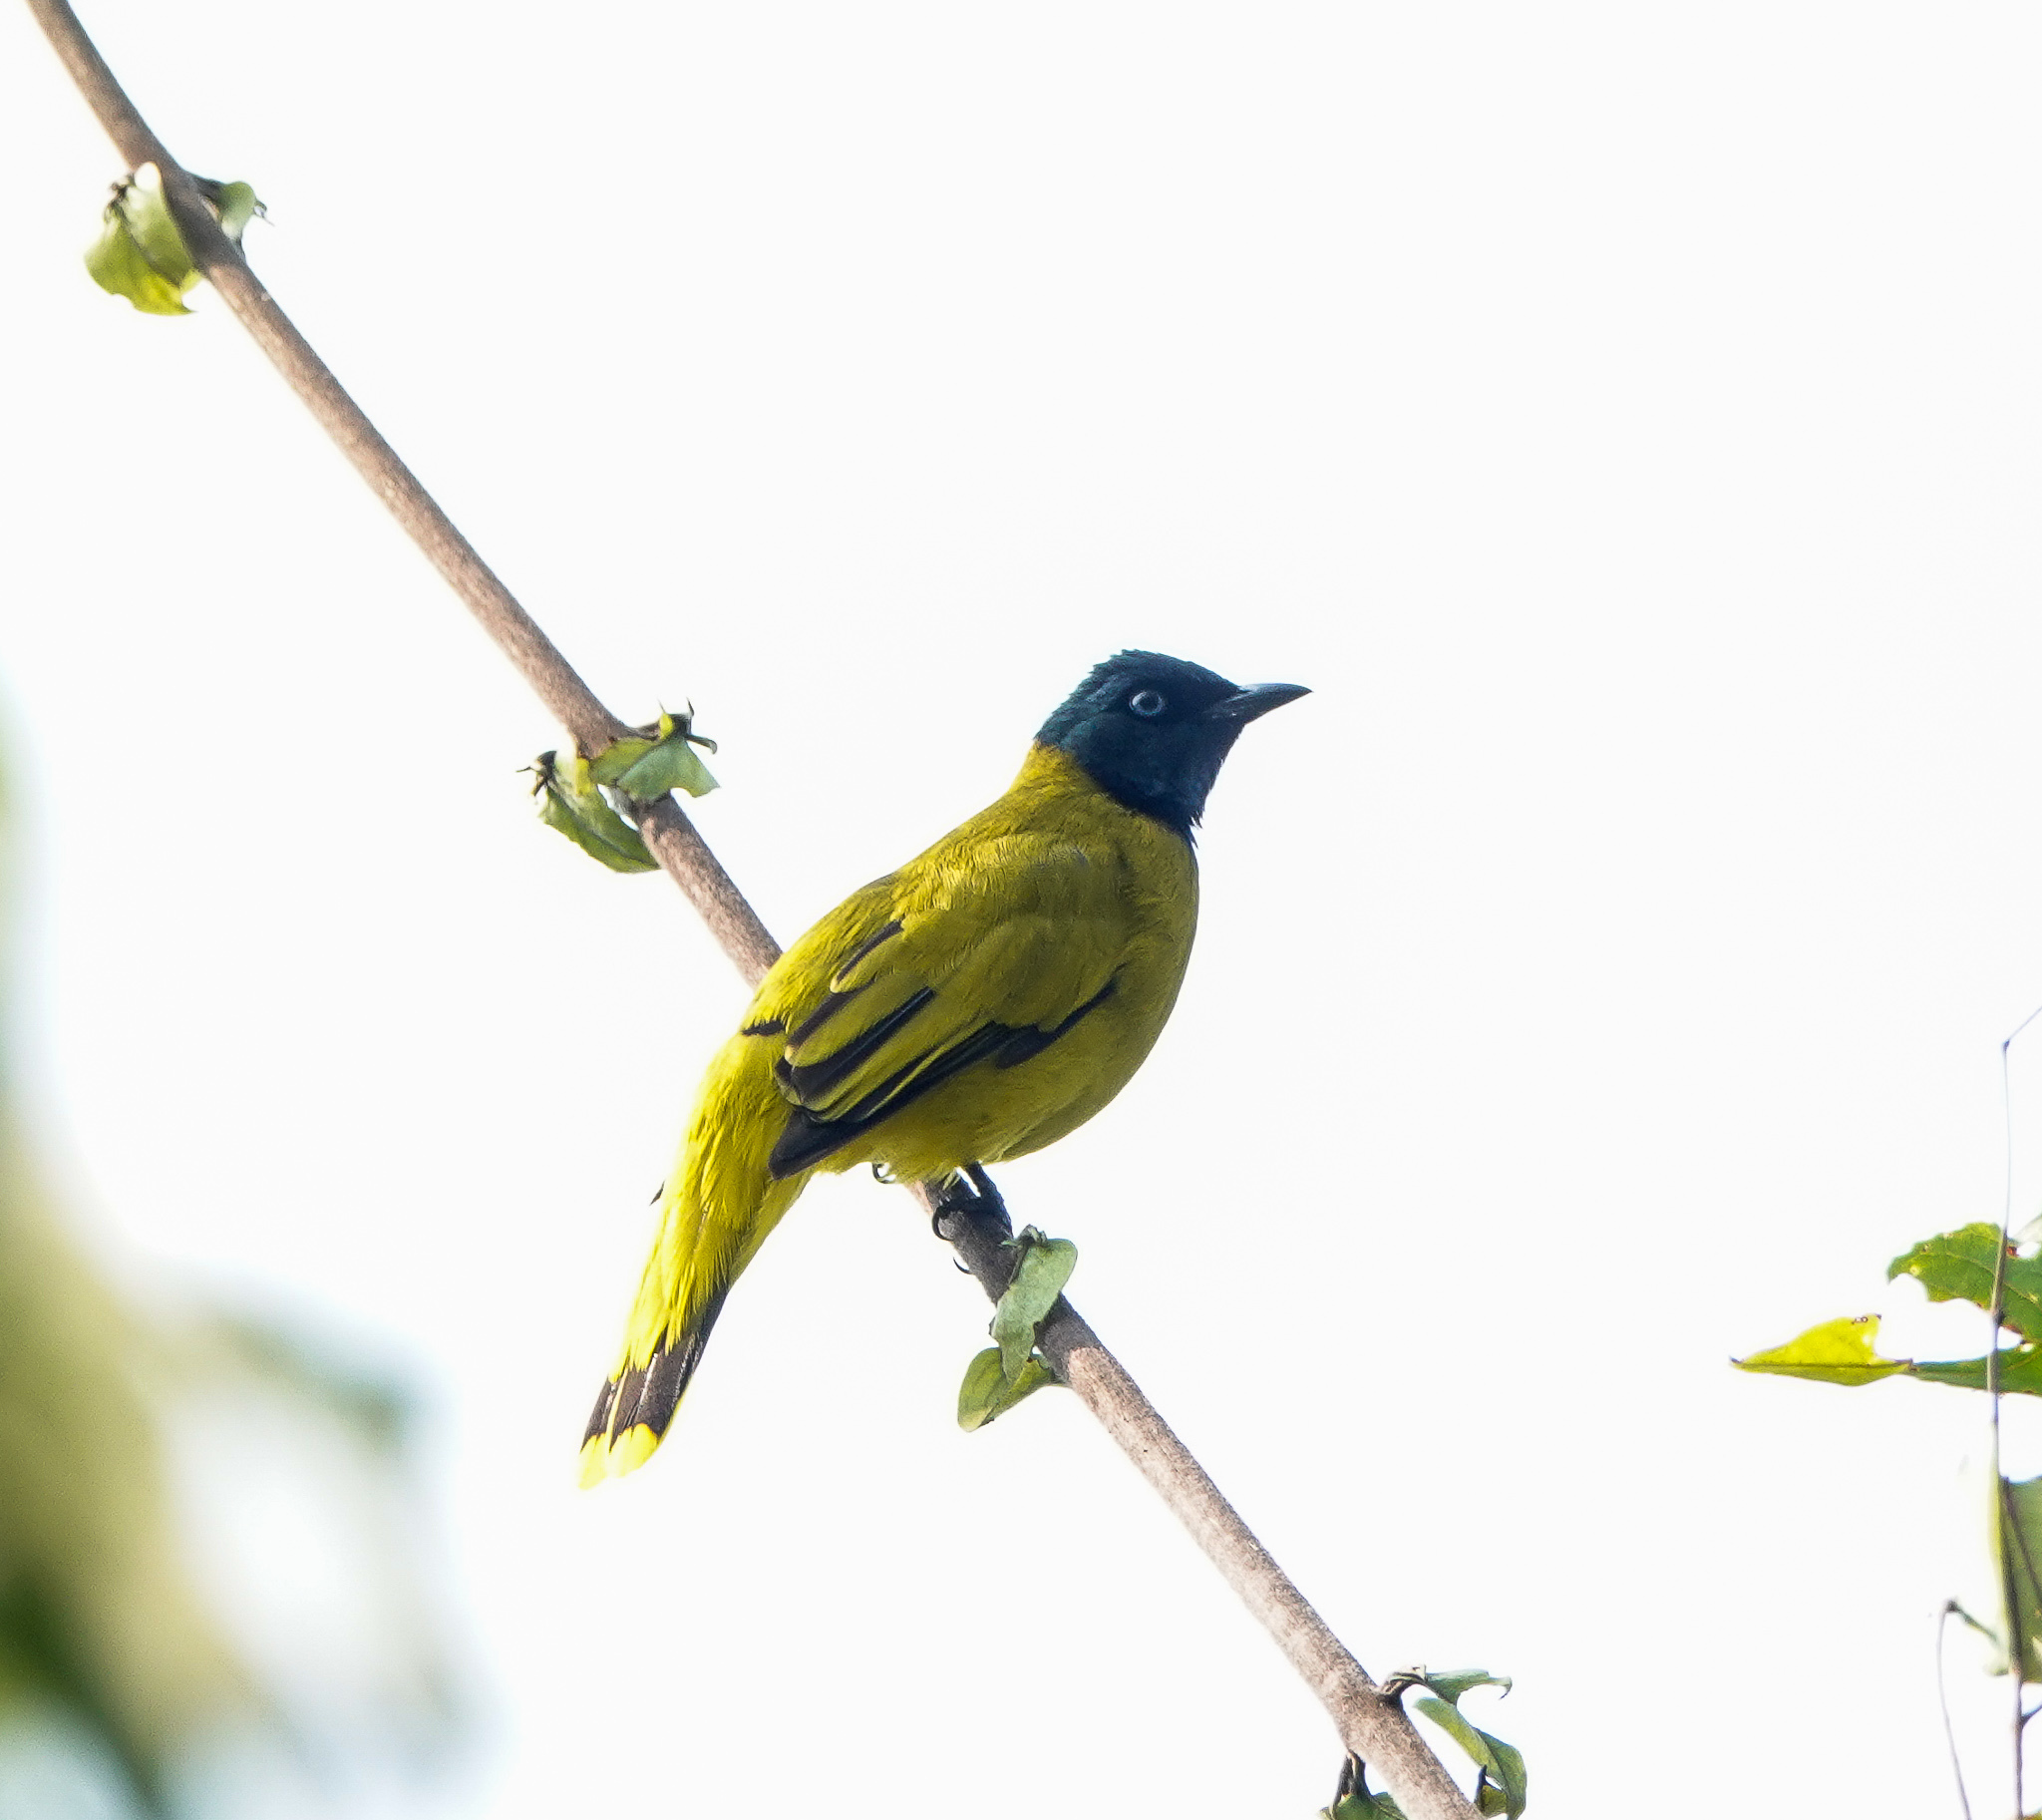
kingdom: Animalia
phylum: Chordata
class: Aves
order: Passeriformes
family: Pycnonotidae
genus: Microtarsus
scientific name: Microtarsus
